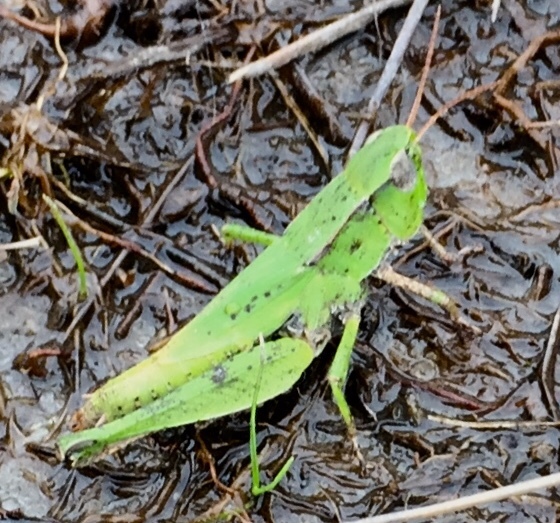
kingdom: Animalia
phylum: Arthropoda
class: Insecta
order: Orthoptera
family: Acrididae
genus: Dichromorpha
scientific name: Dichromorpha viridis
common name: Short-winged green grasshopper
